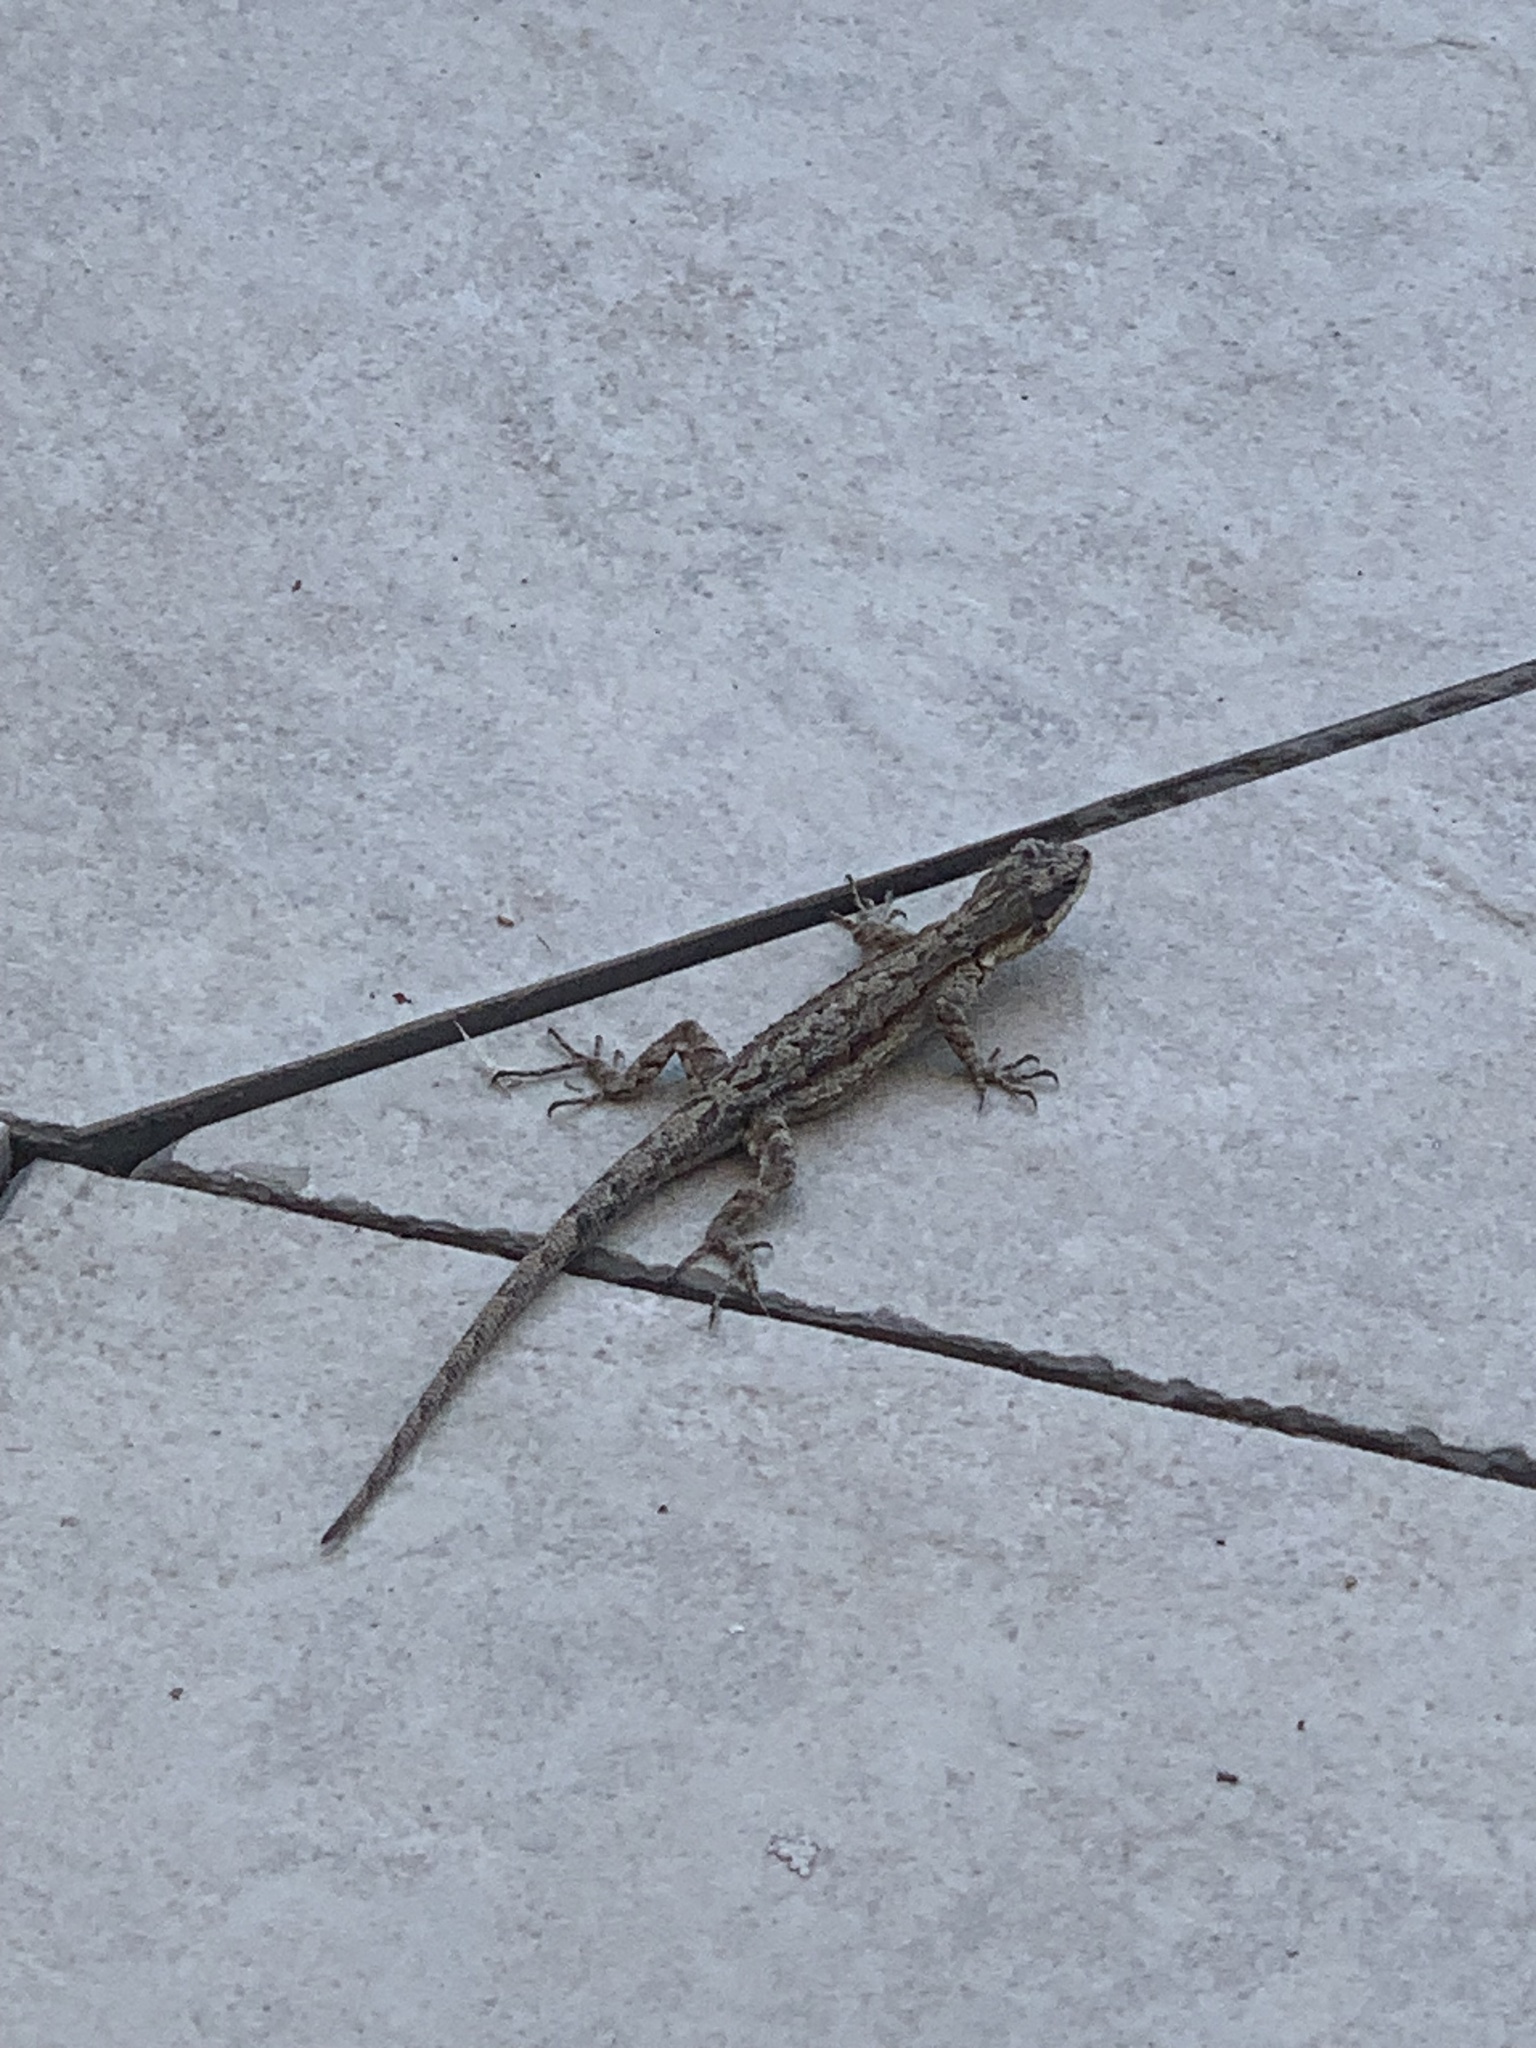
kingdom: Animalia
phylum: Chordata
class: Squamata
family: Phrynosomatidae
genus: Urosaurus
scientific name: Urosaurus ornatus
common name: Ornate tree lizard
